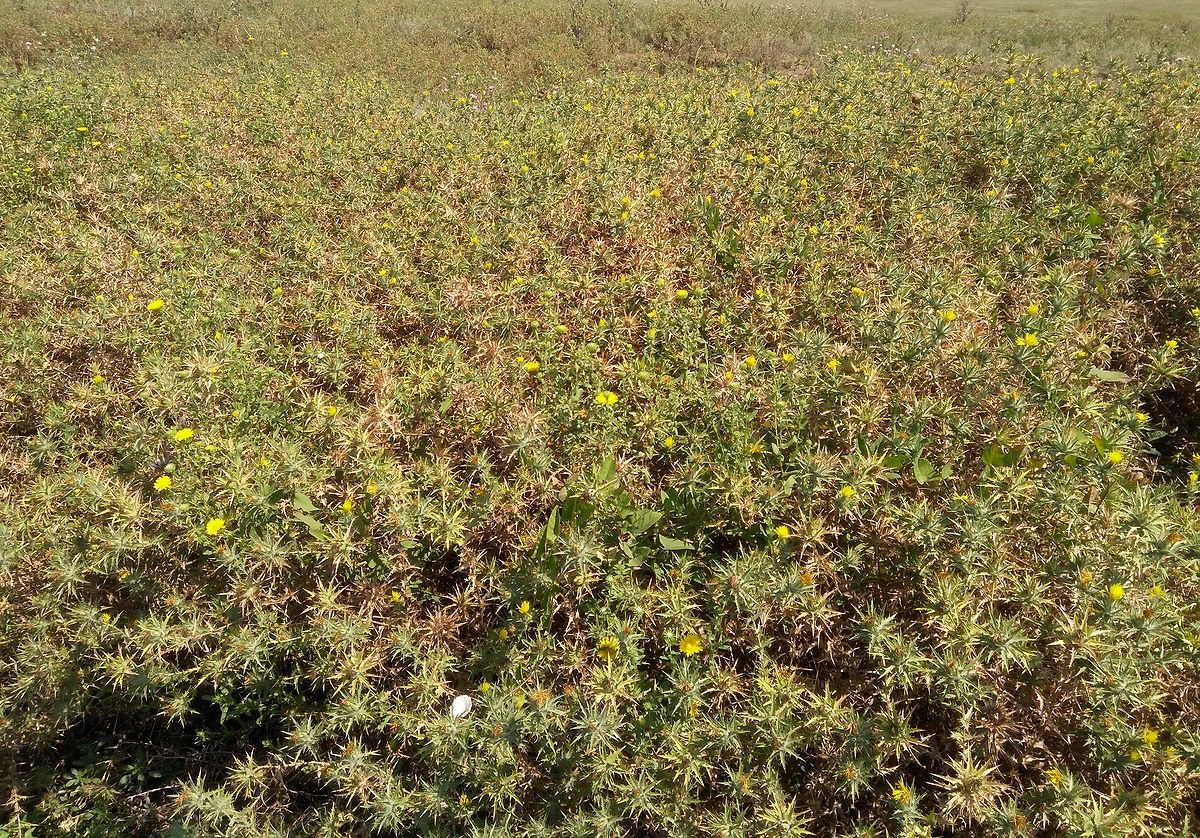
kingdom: Plantae
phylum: Tracheophyta
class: Magnoliopsida
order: Asterales
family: Asteraceae
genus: Carthamus
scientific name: Carthamus lanatus
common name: Downy safflower
